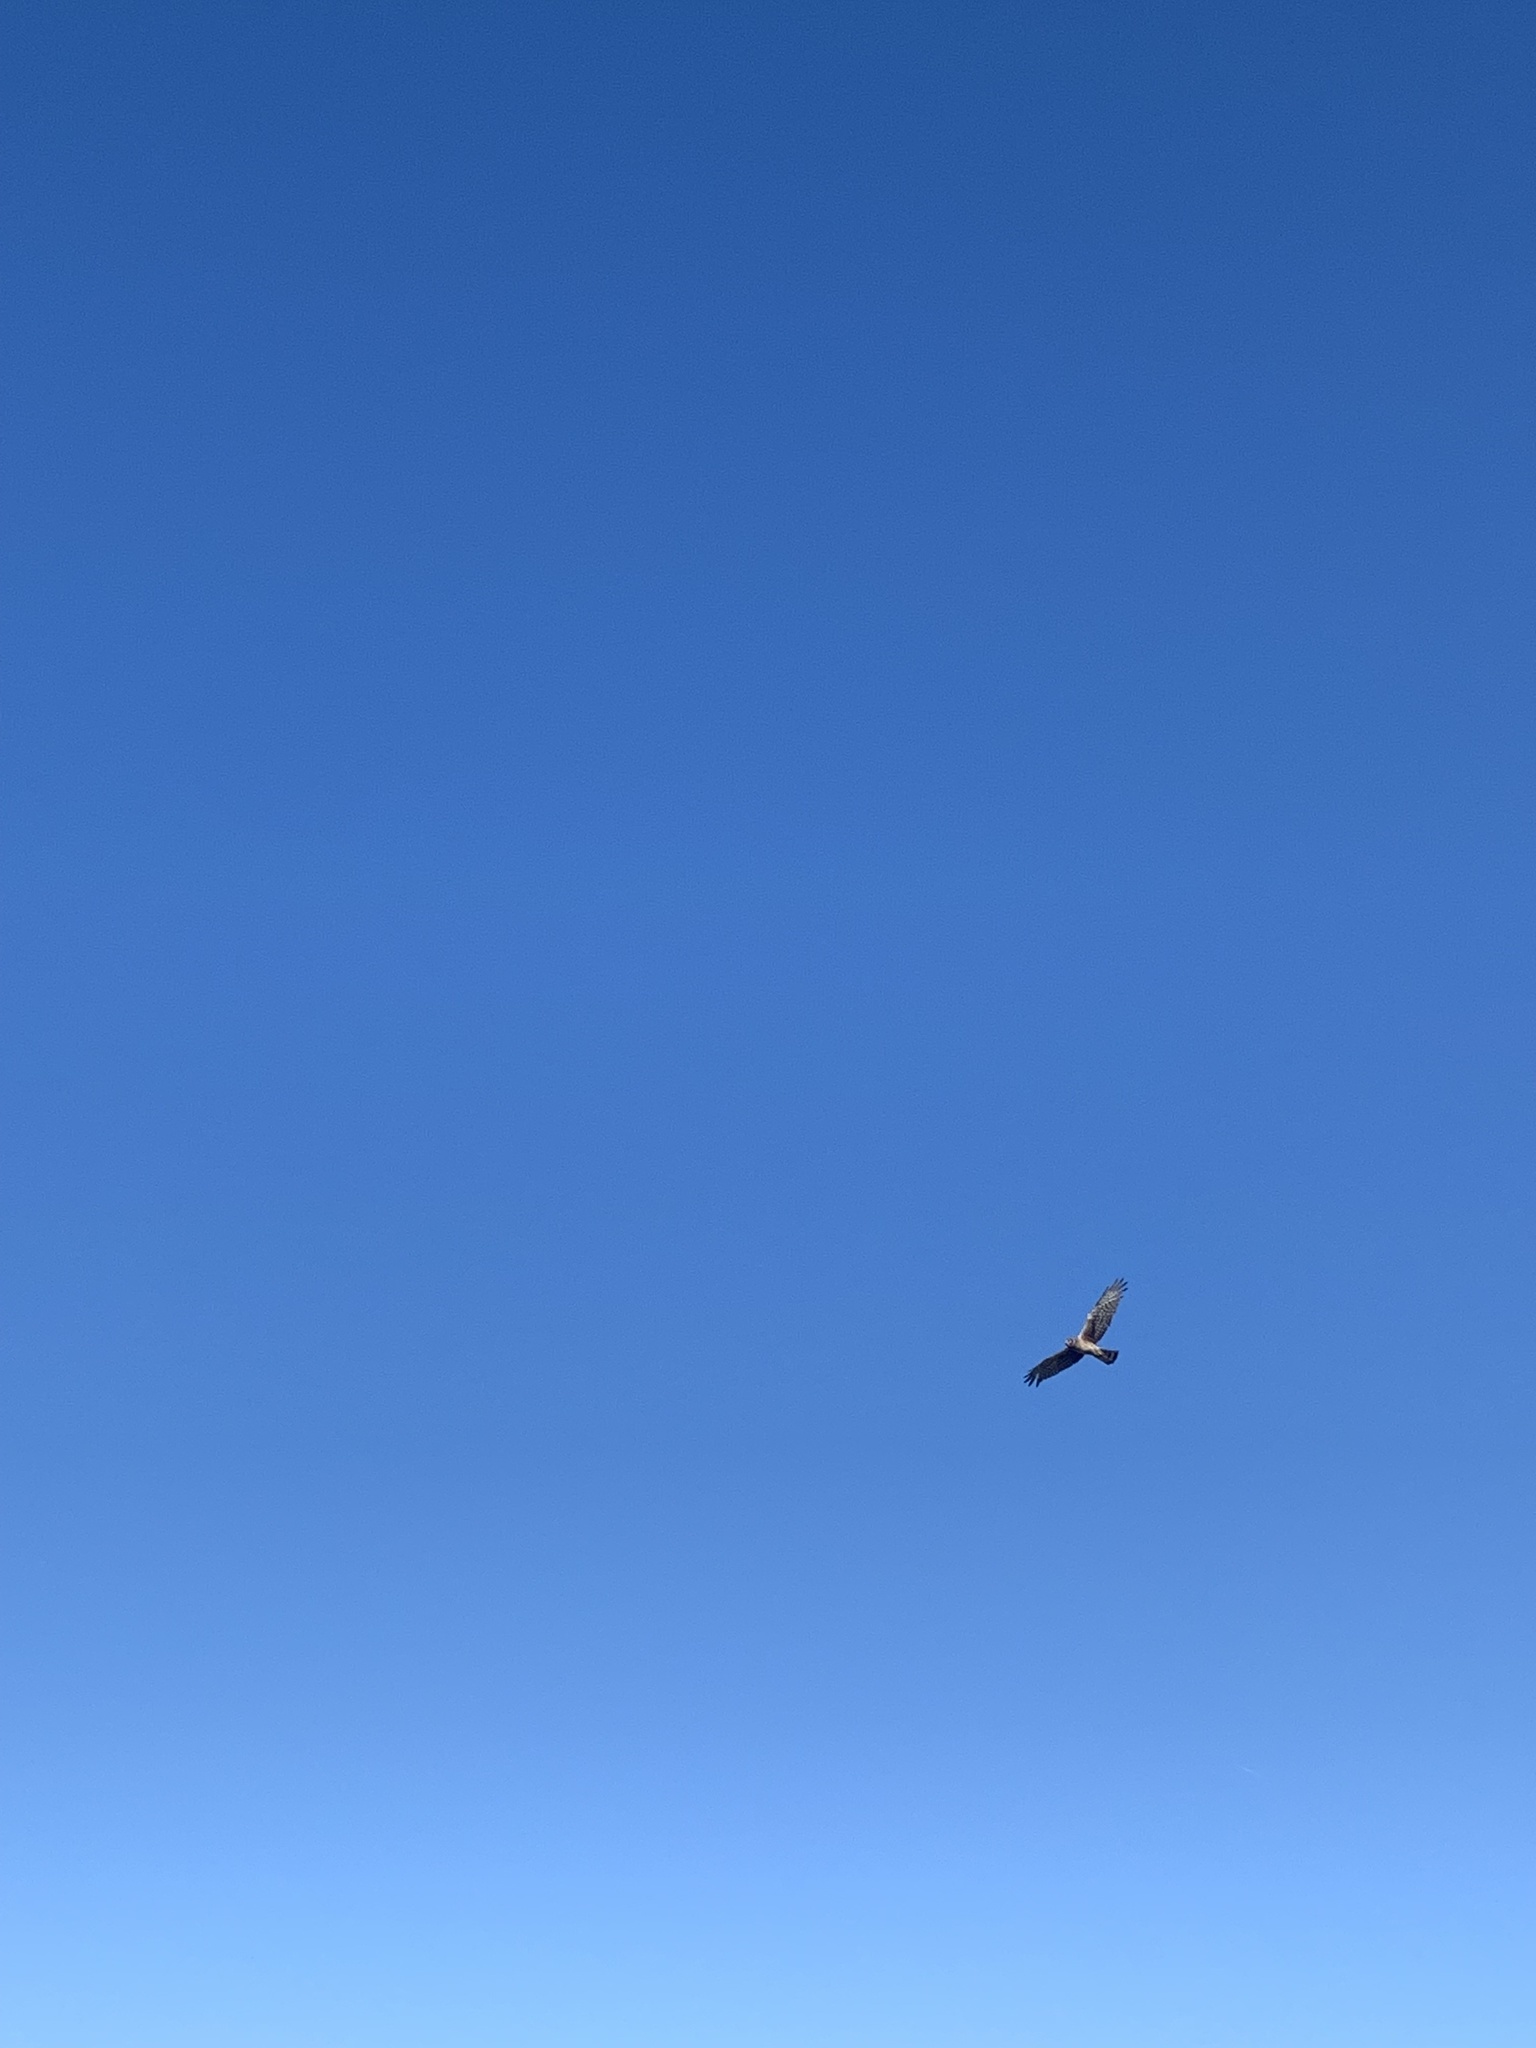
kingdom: Animalia
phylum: Chordata
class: Aves
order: Accipitriformes
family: Accipitridae
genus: Circus
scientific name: Circus cyaneus
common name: Hen harrier
